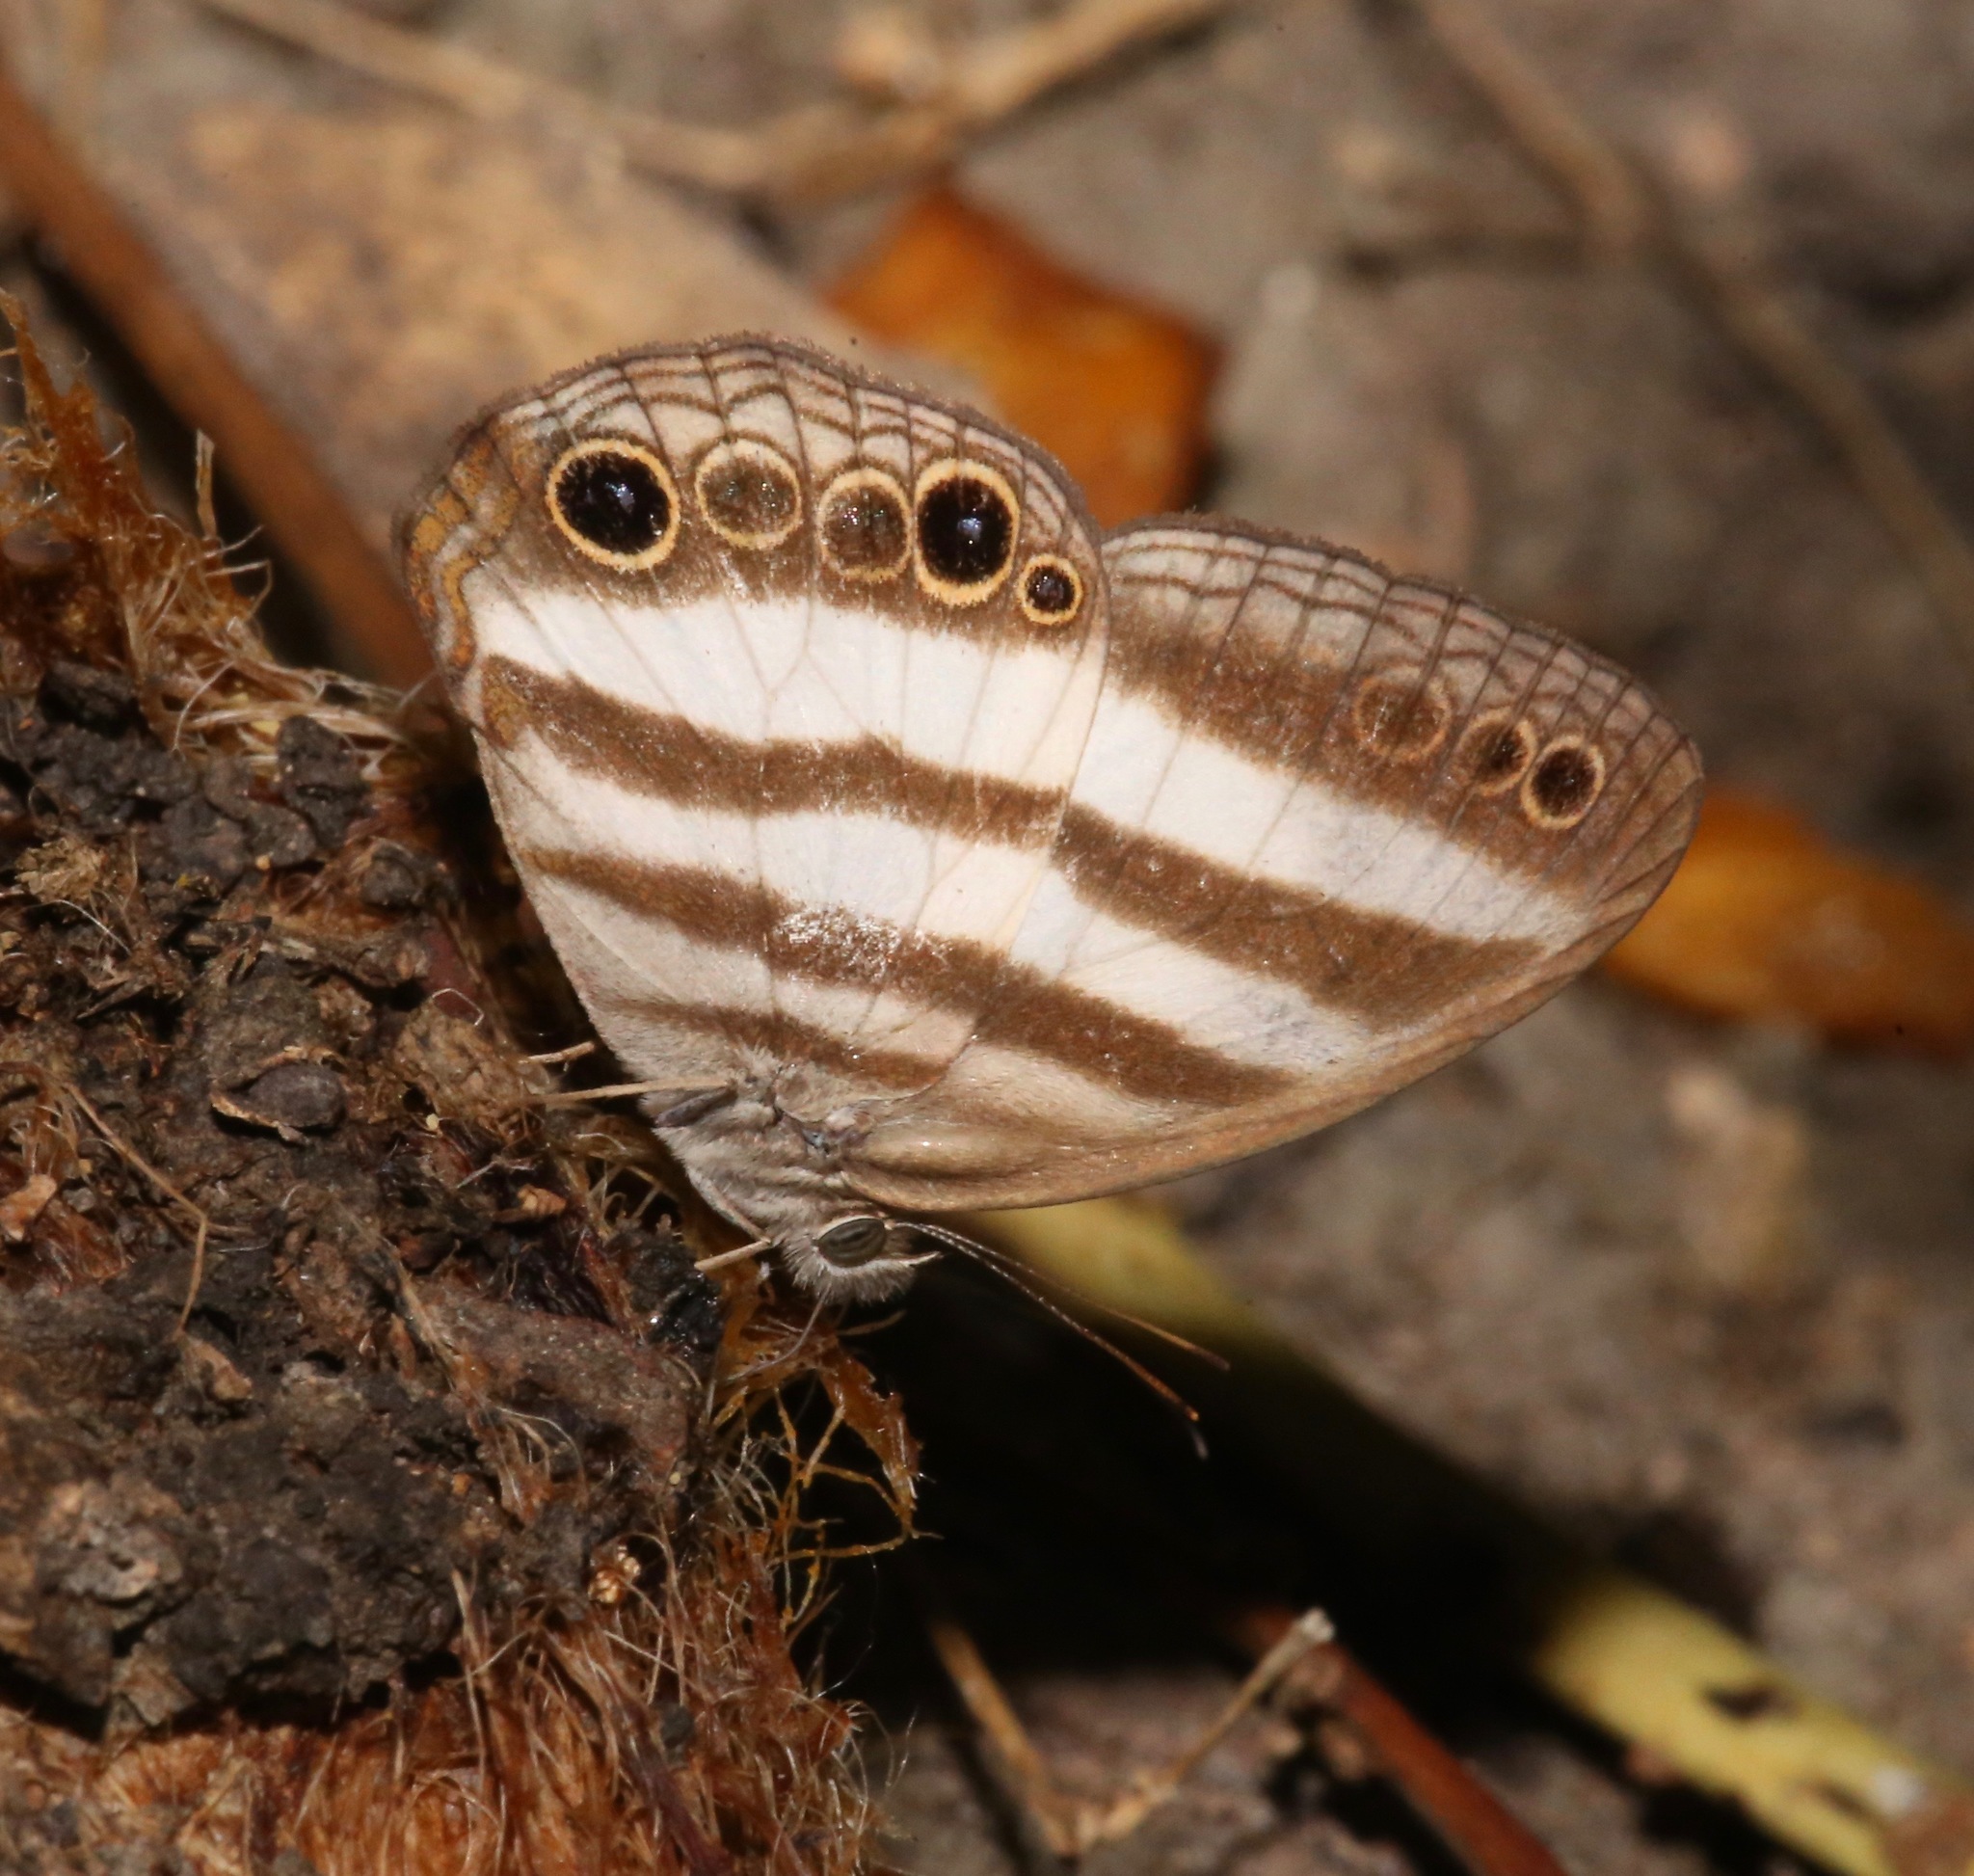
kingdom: Animalia
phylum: Arthropoda
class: Insecta
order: Lepidoptera
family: Nymphalidae
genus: Pareuptychia
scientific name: Pareuptychia hesione
